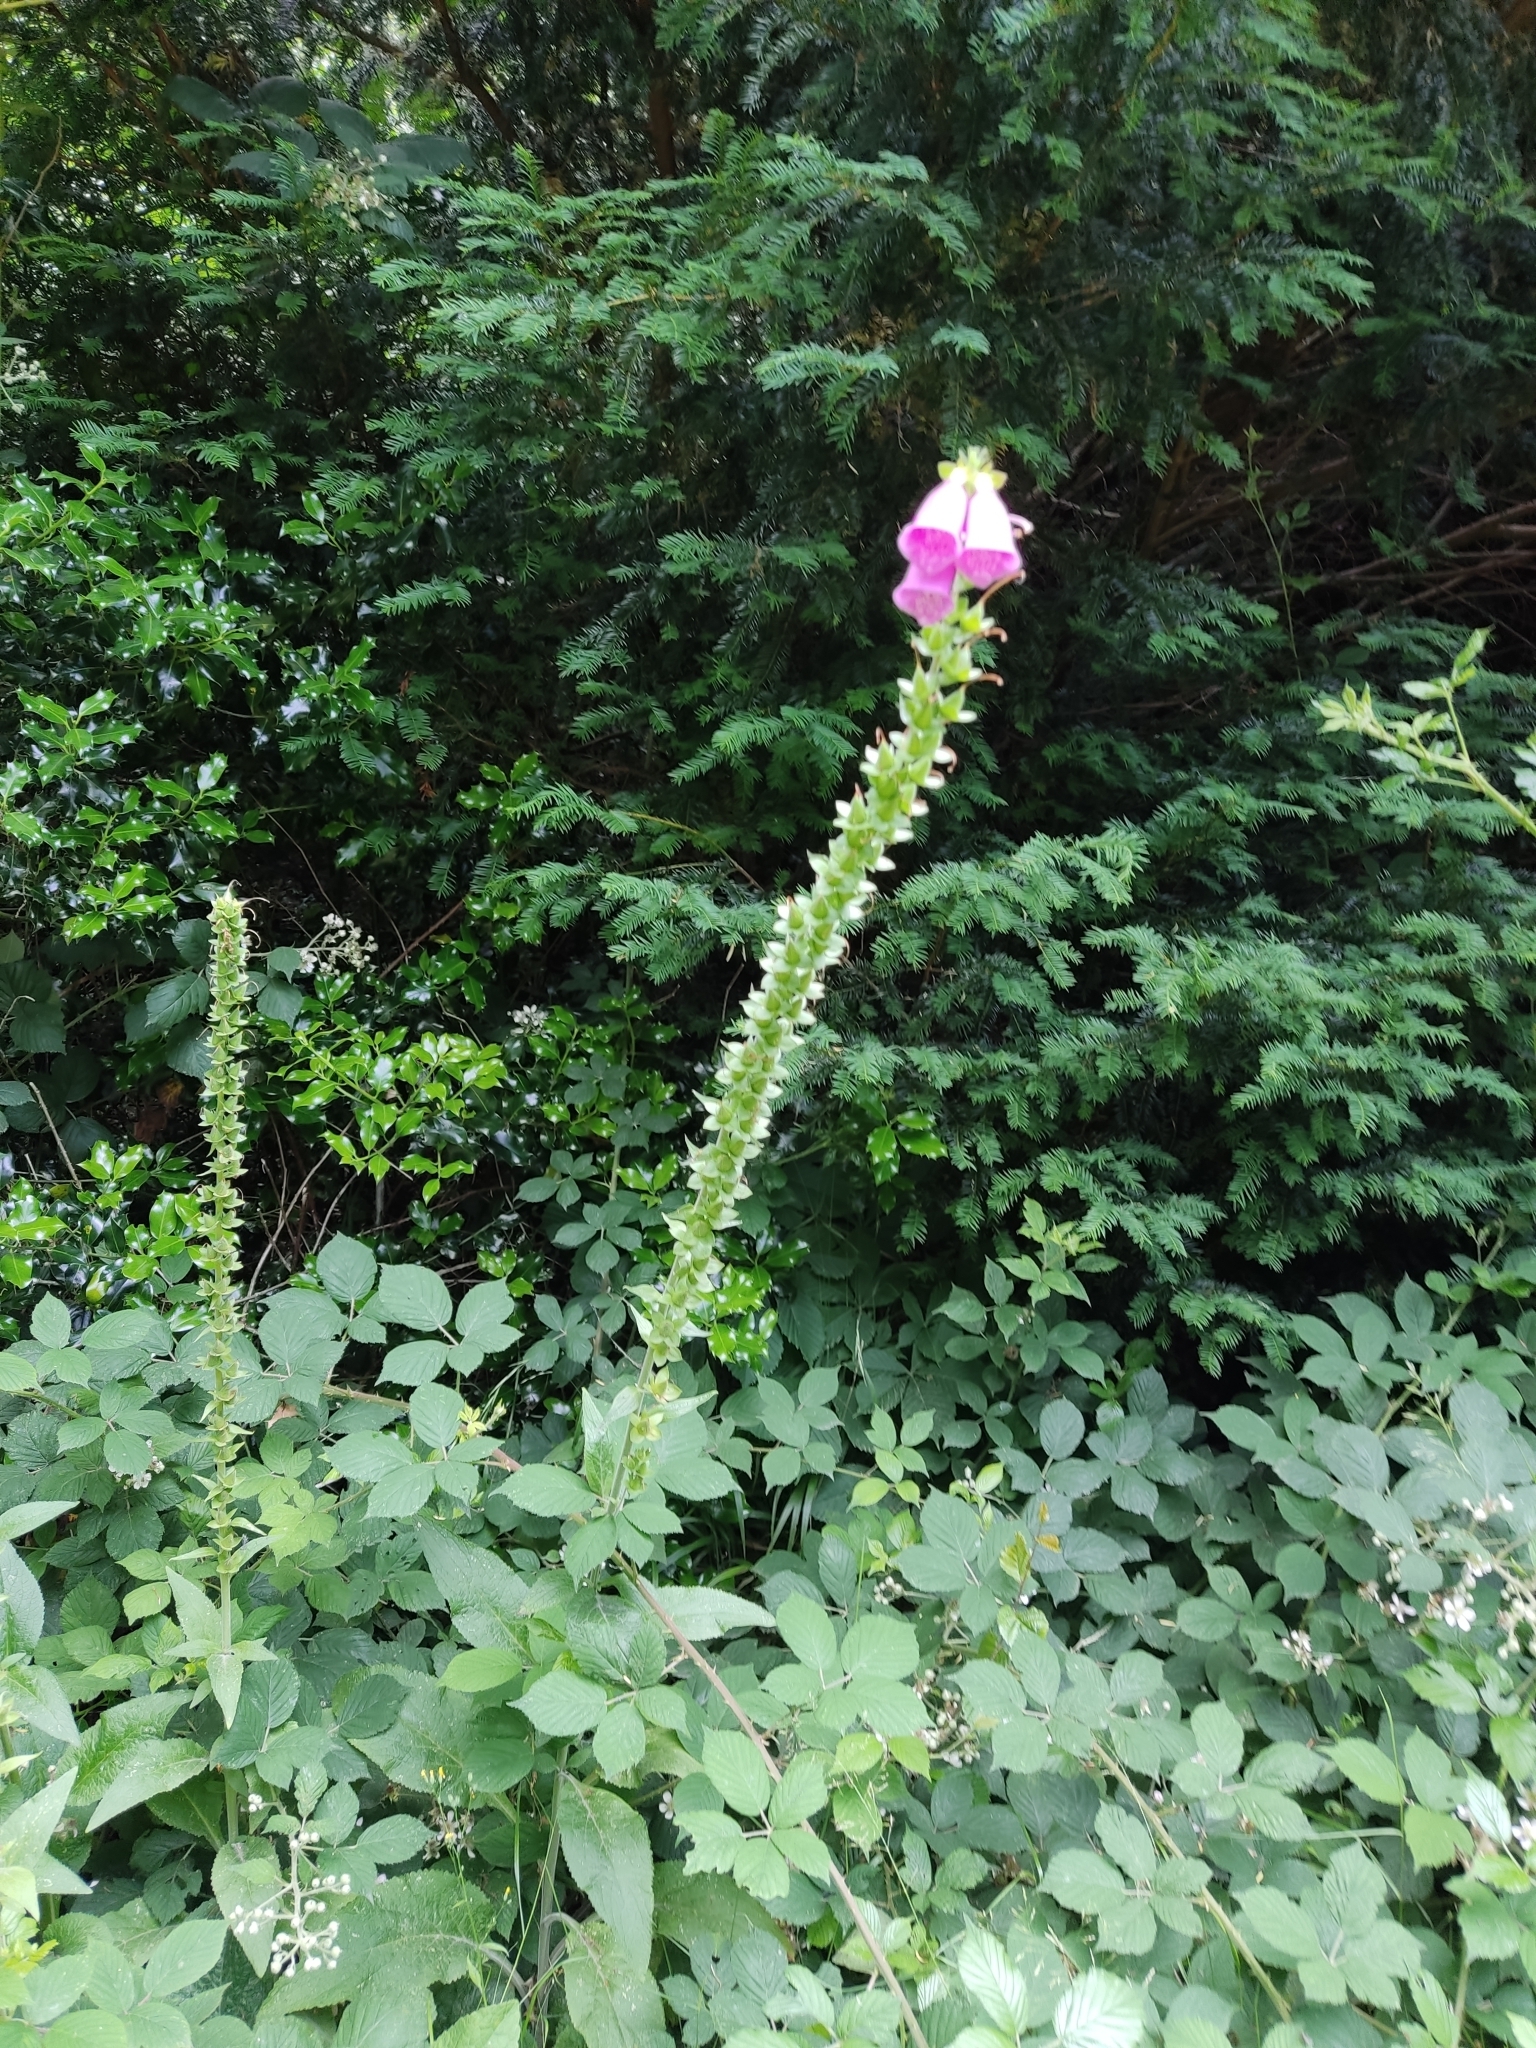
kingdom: Plantae
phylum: Tracheophyta
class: Magnoliopsida
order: Lamiales
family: Plantaginaceae
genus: Digitalis
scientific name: Digitalis purpurea
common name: Foxglove
